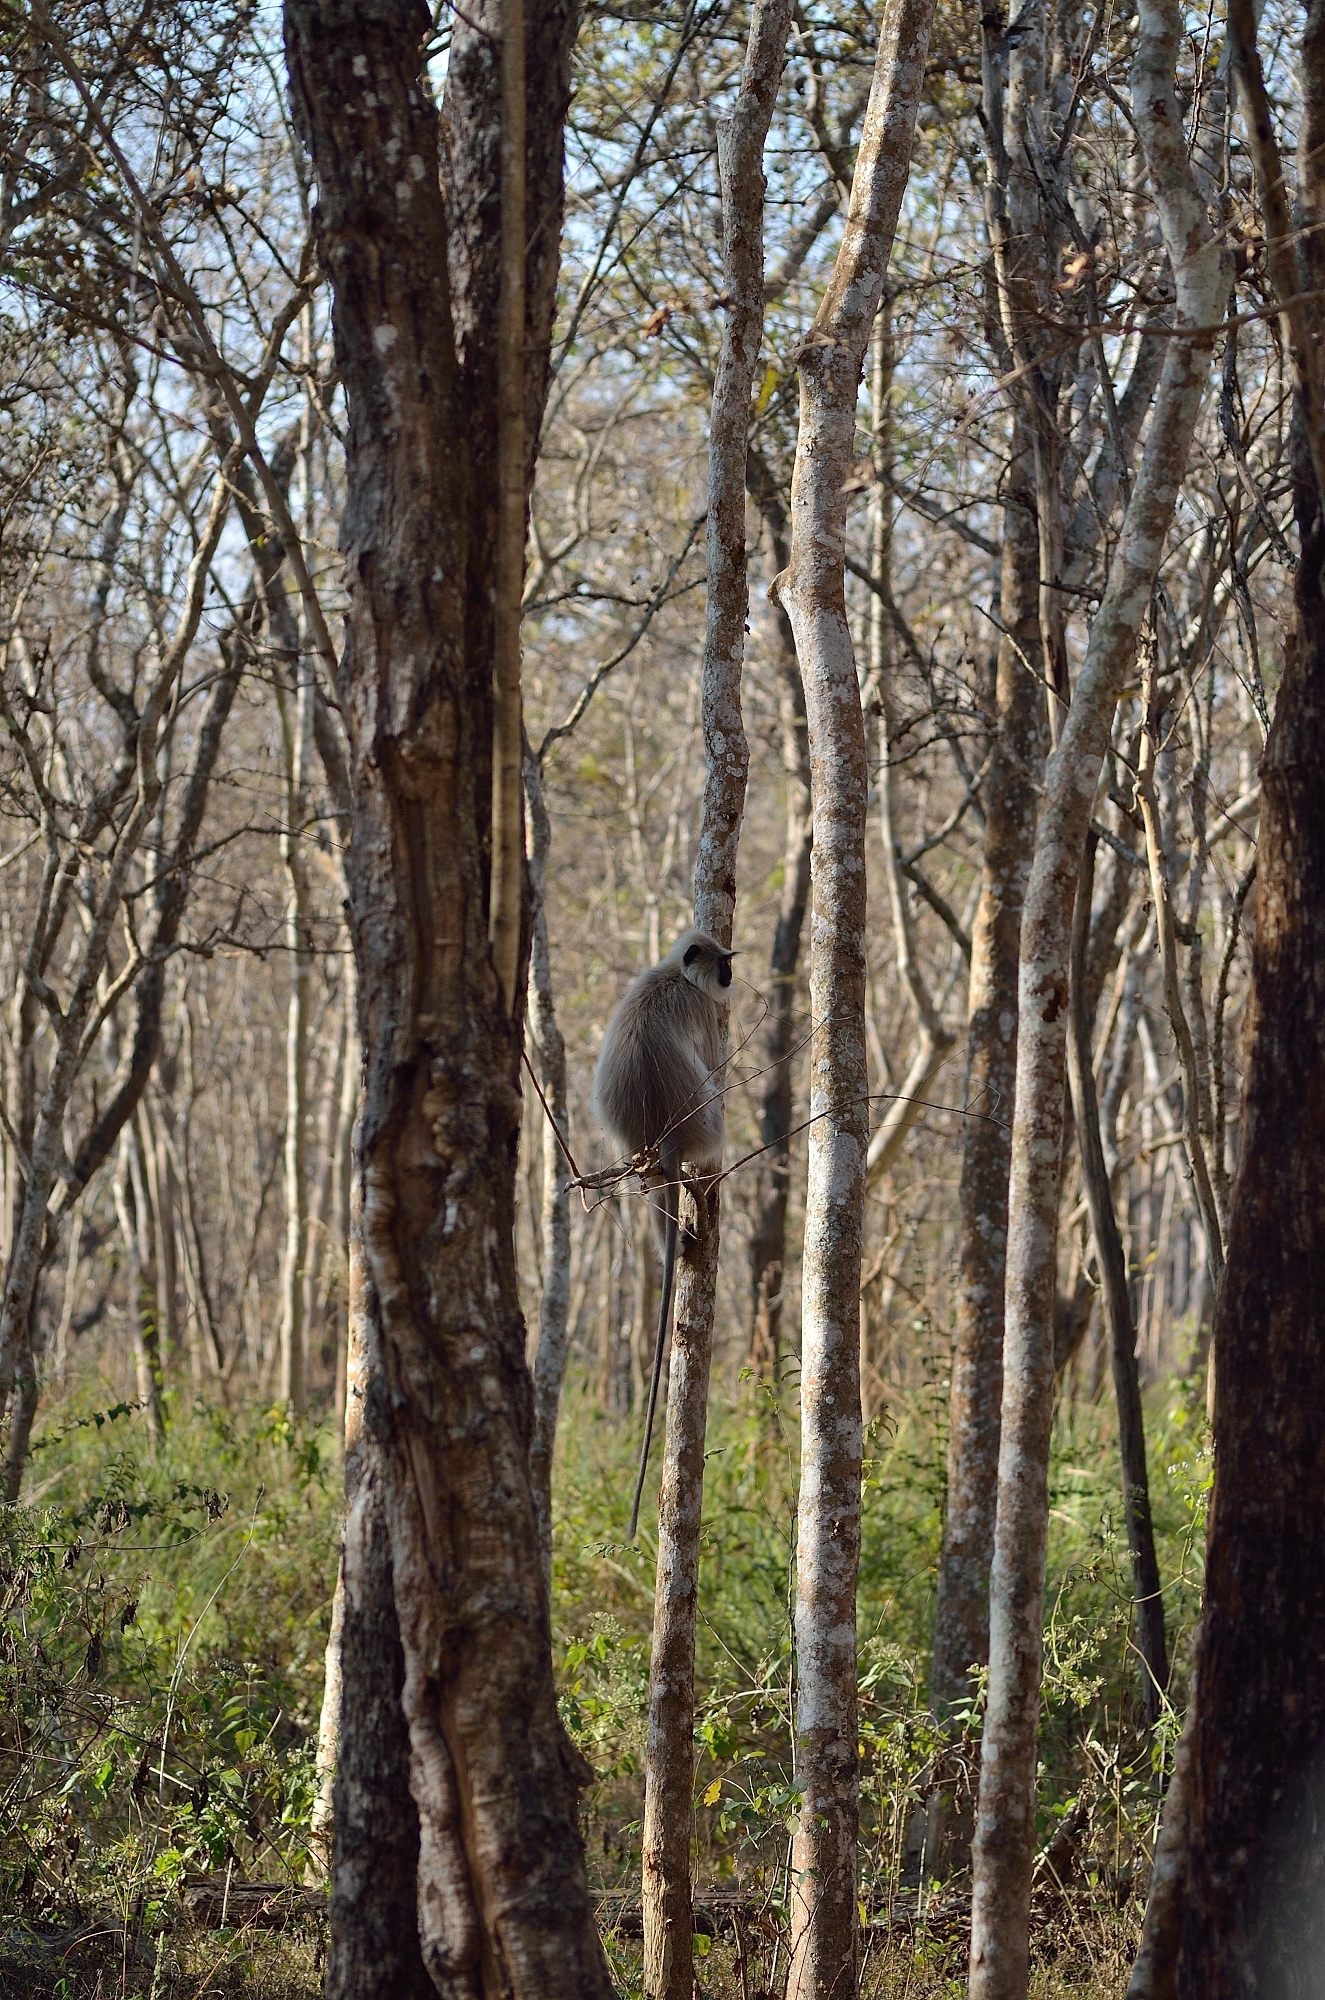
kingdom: Animalia
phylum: Chordata
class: Mammalia
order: Primates
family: Cercopithecidae
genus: Semnopithecus
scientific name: Semnopithecus priam
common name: Tufted gray langur
